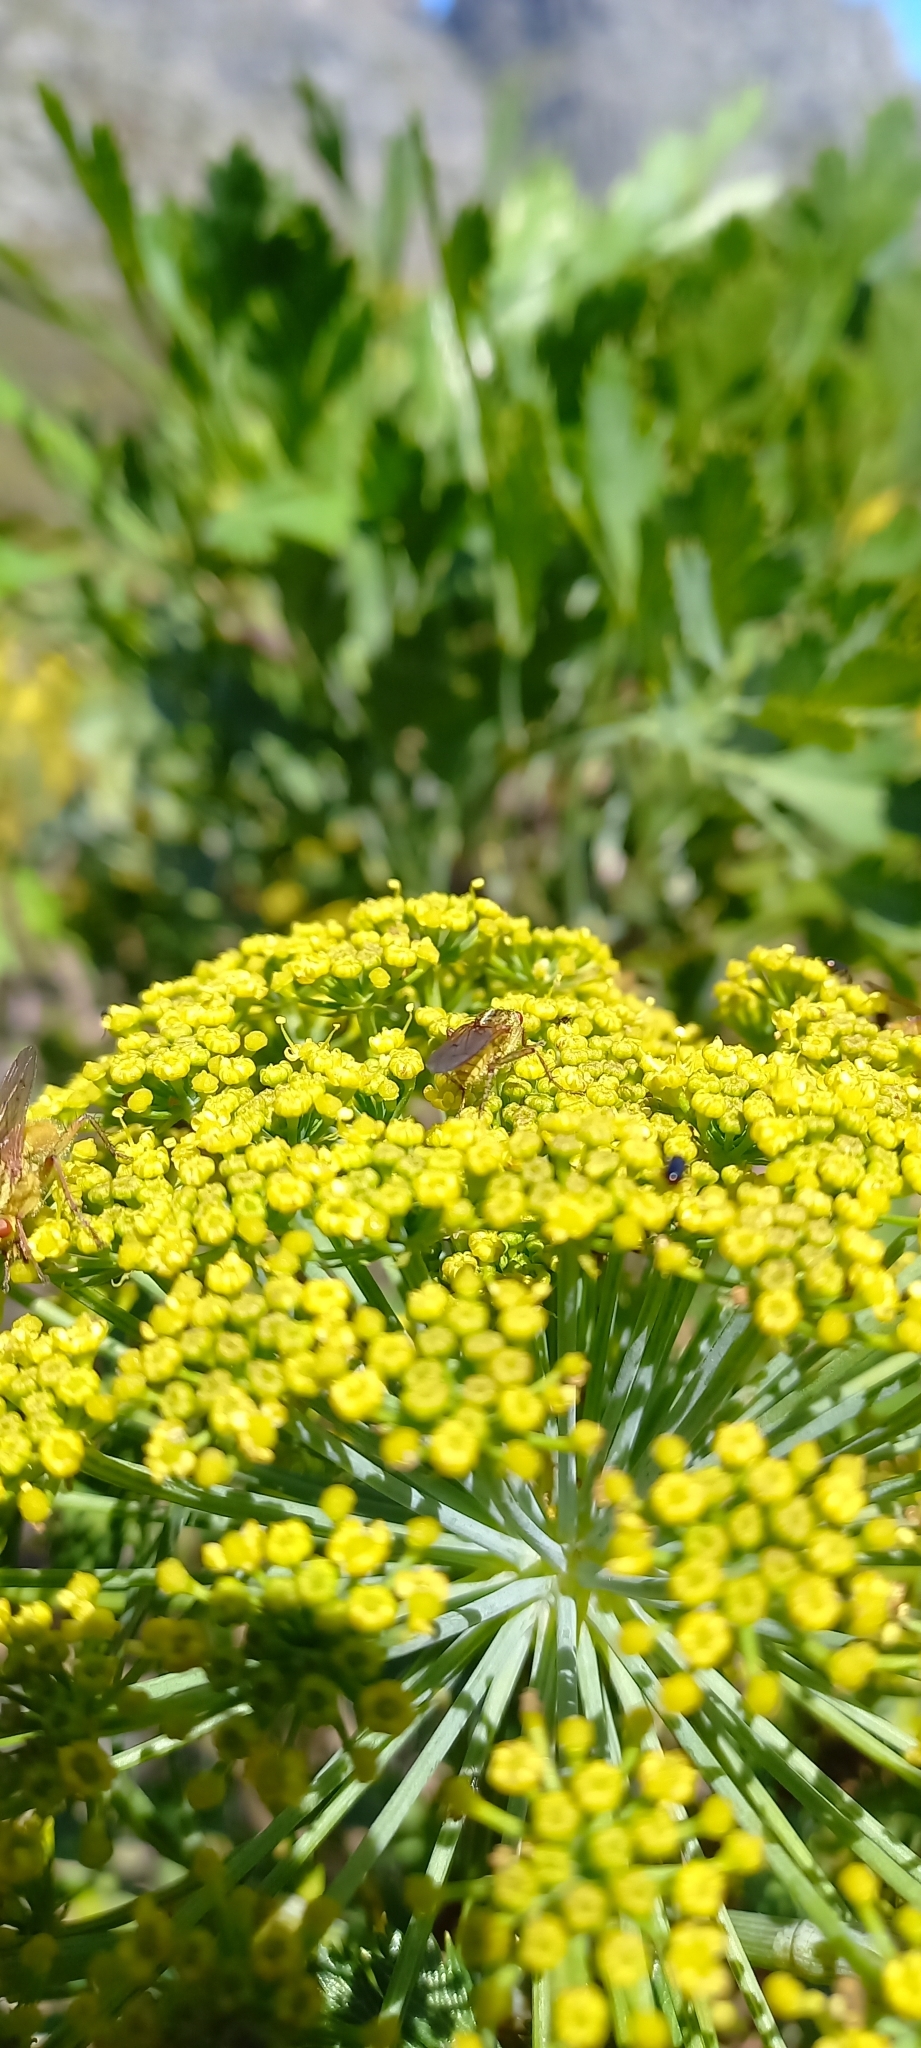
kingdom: Plantae
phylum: Tracheophyta
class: Magnoliopsida
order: Apiales
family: Apiaceae
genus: Notobubon
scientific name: Notobubon galbanum
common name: Blisterbush
